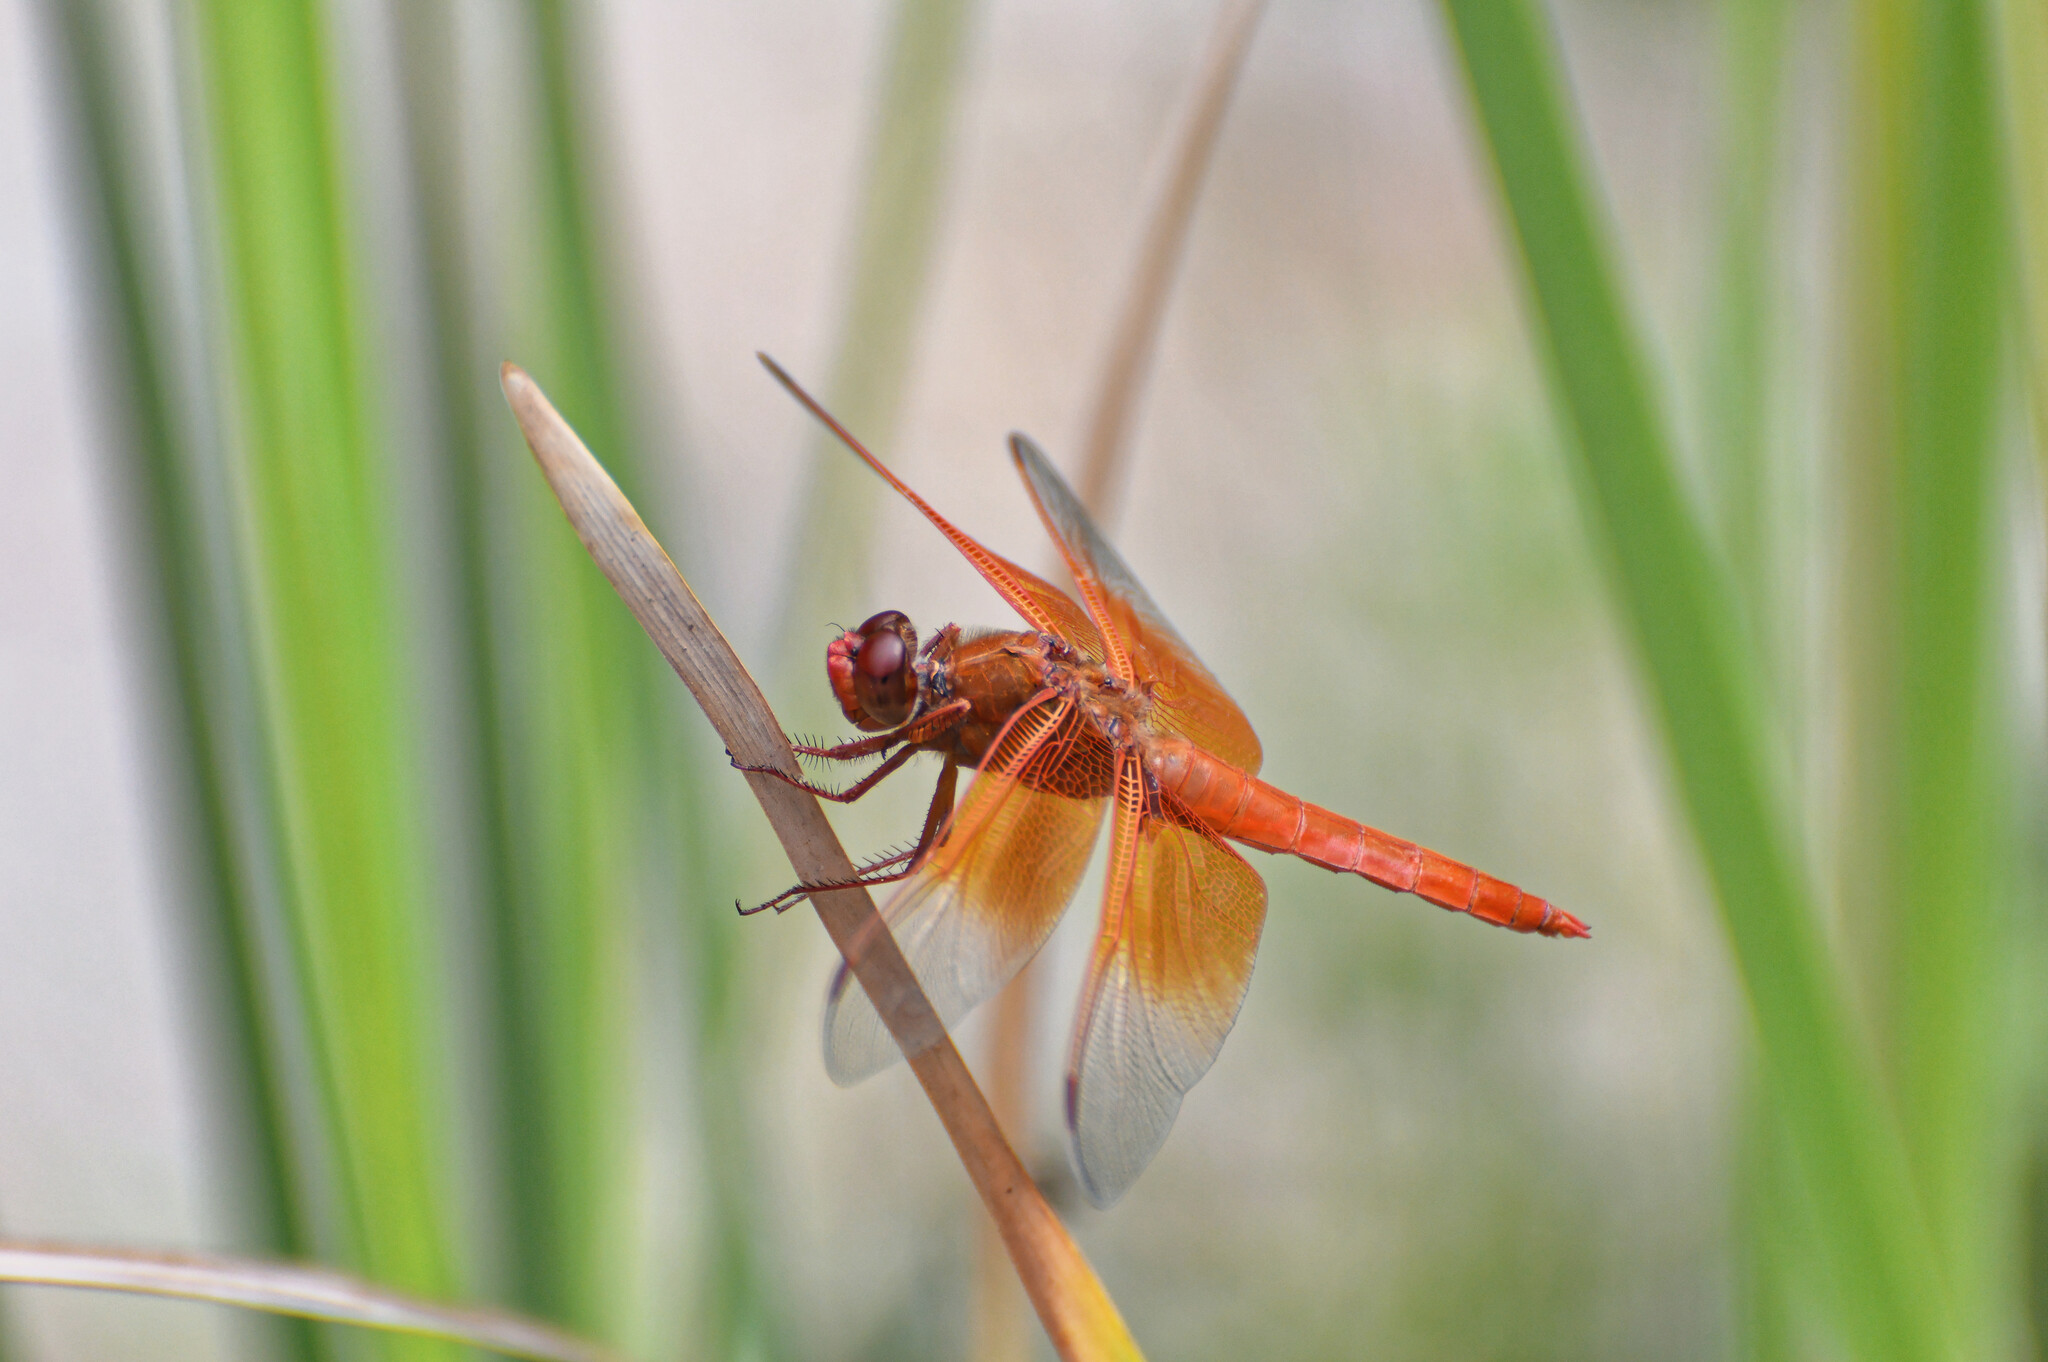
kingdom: Animalia
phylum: Arthropoda
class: Insecta
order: Odonata
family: Libellulidae
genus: Libellula
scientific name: Libellula saturata
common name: Flame skimmer
